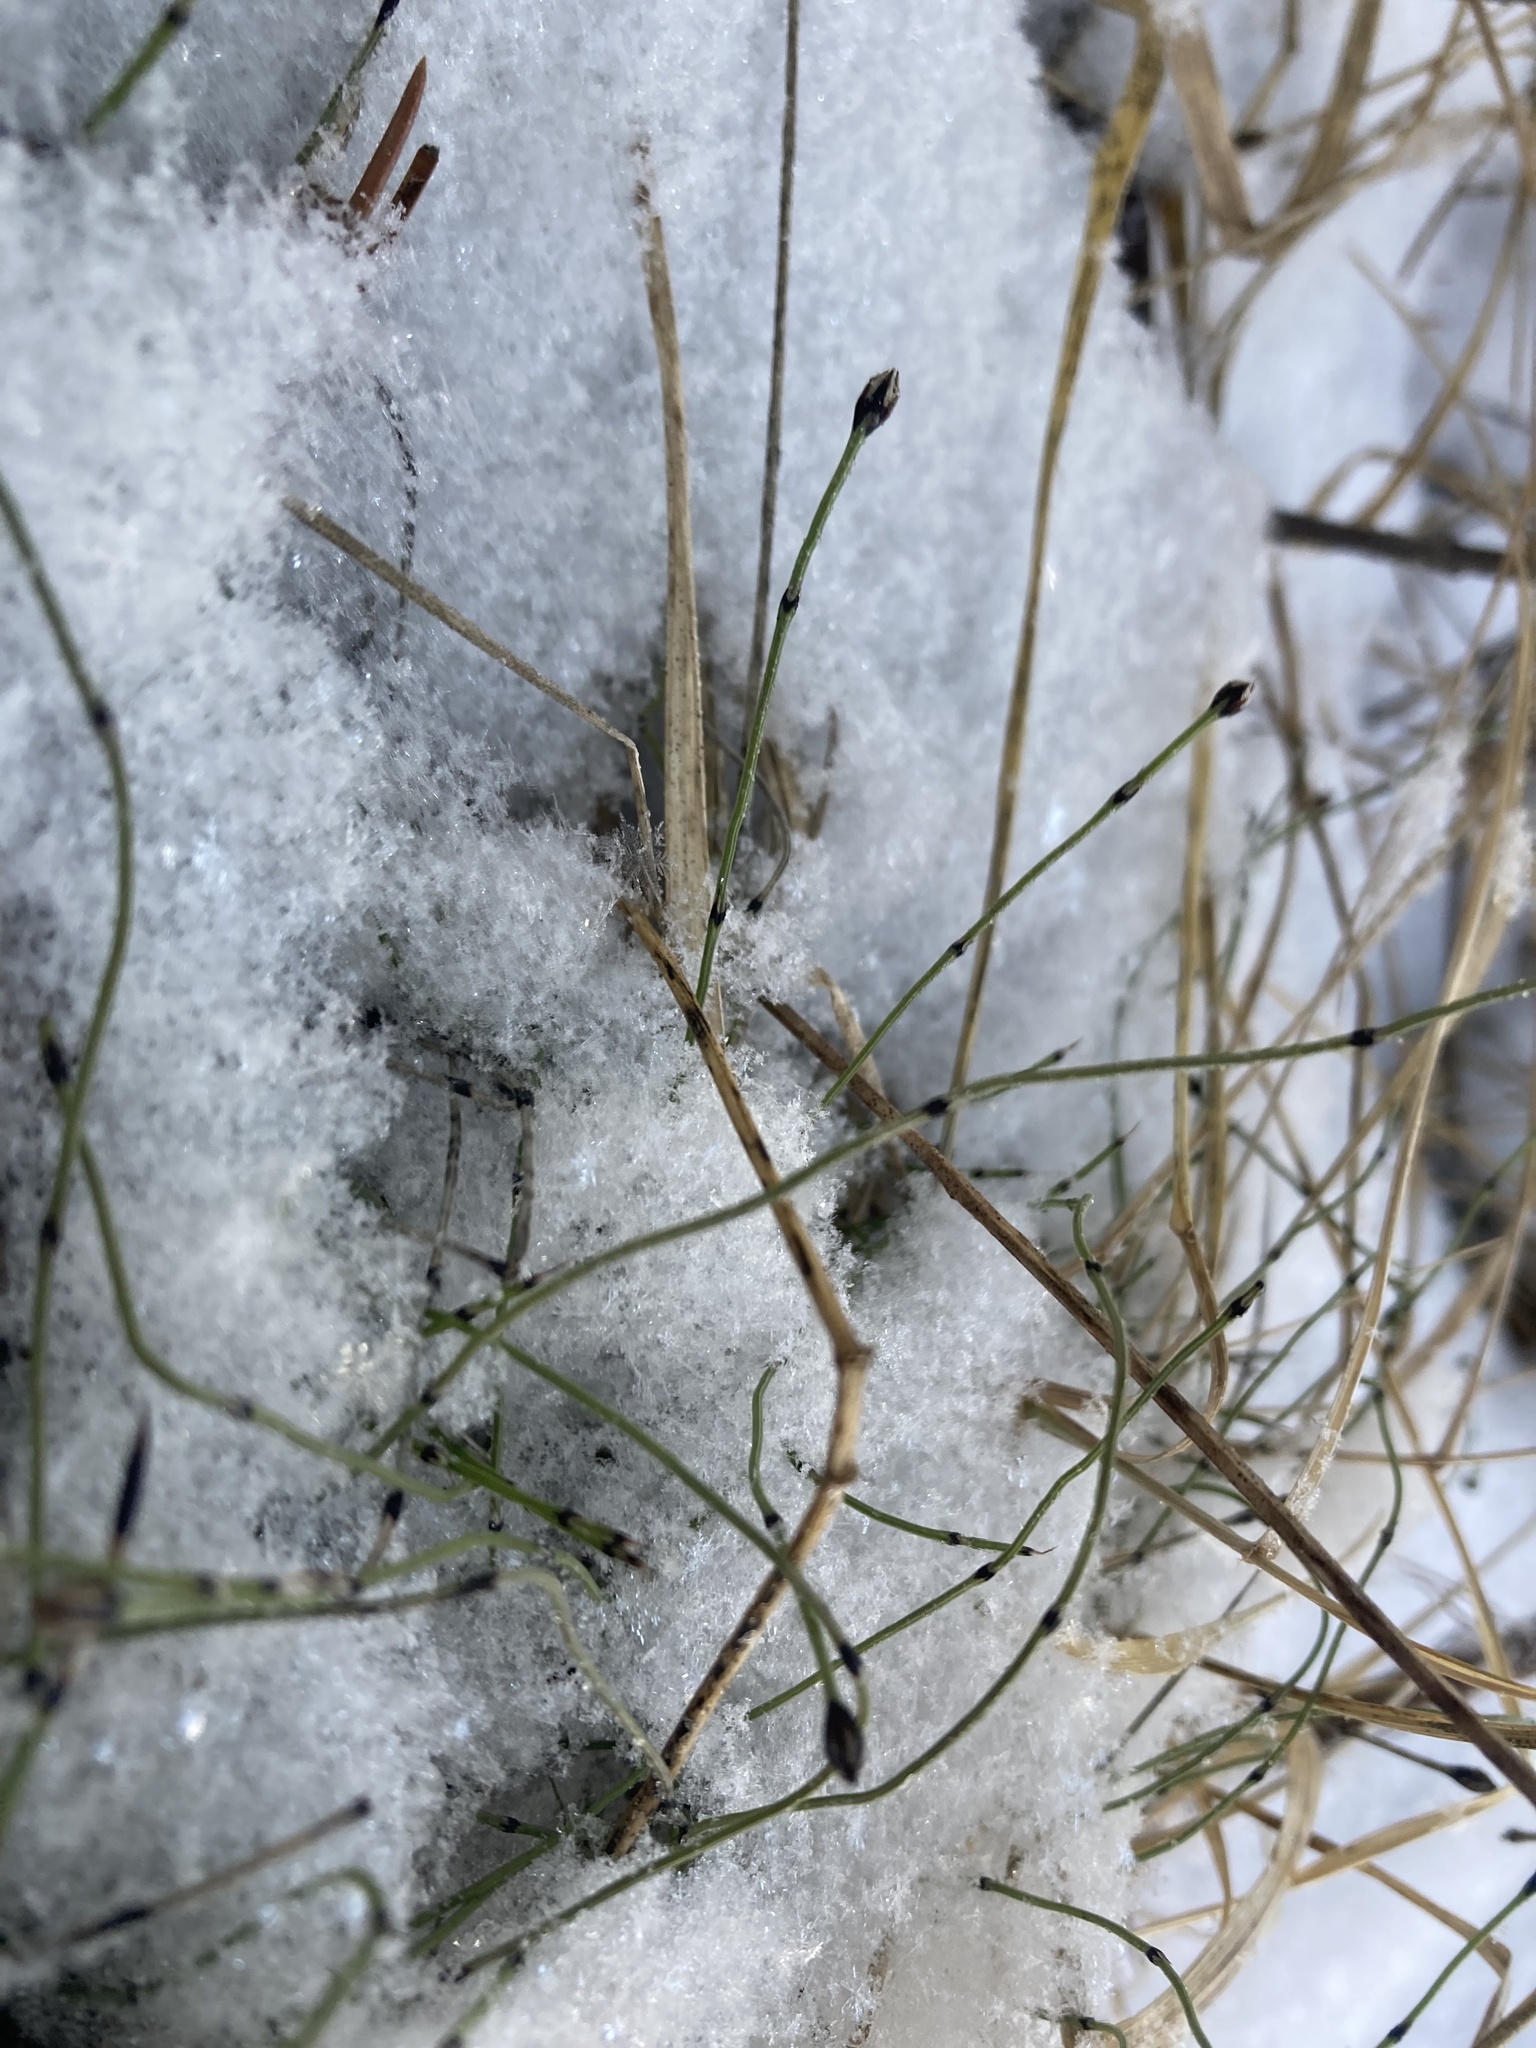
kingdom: Plantae
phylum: Tracheophyta
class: Polypodiopsida
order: Equisetales
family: Equisetaceae
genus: Equisetum
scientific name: Equisetum scirpoides
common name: Delicate horsetail
